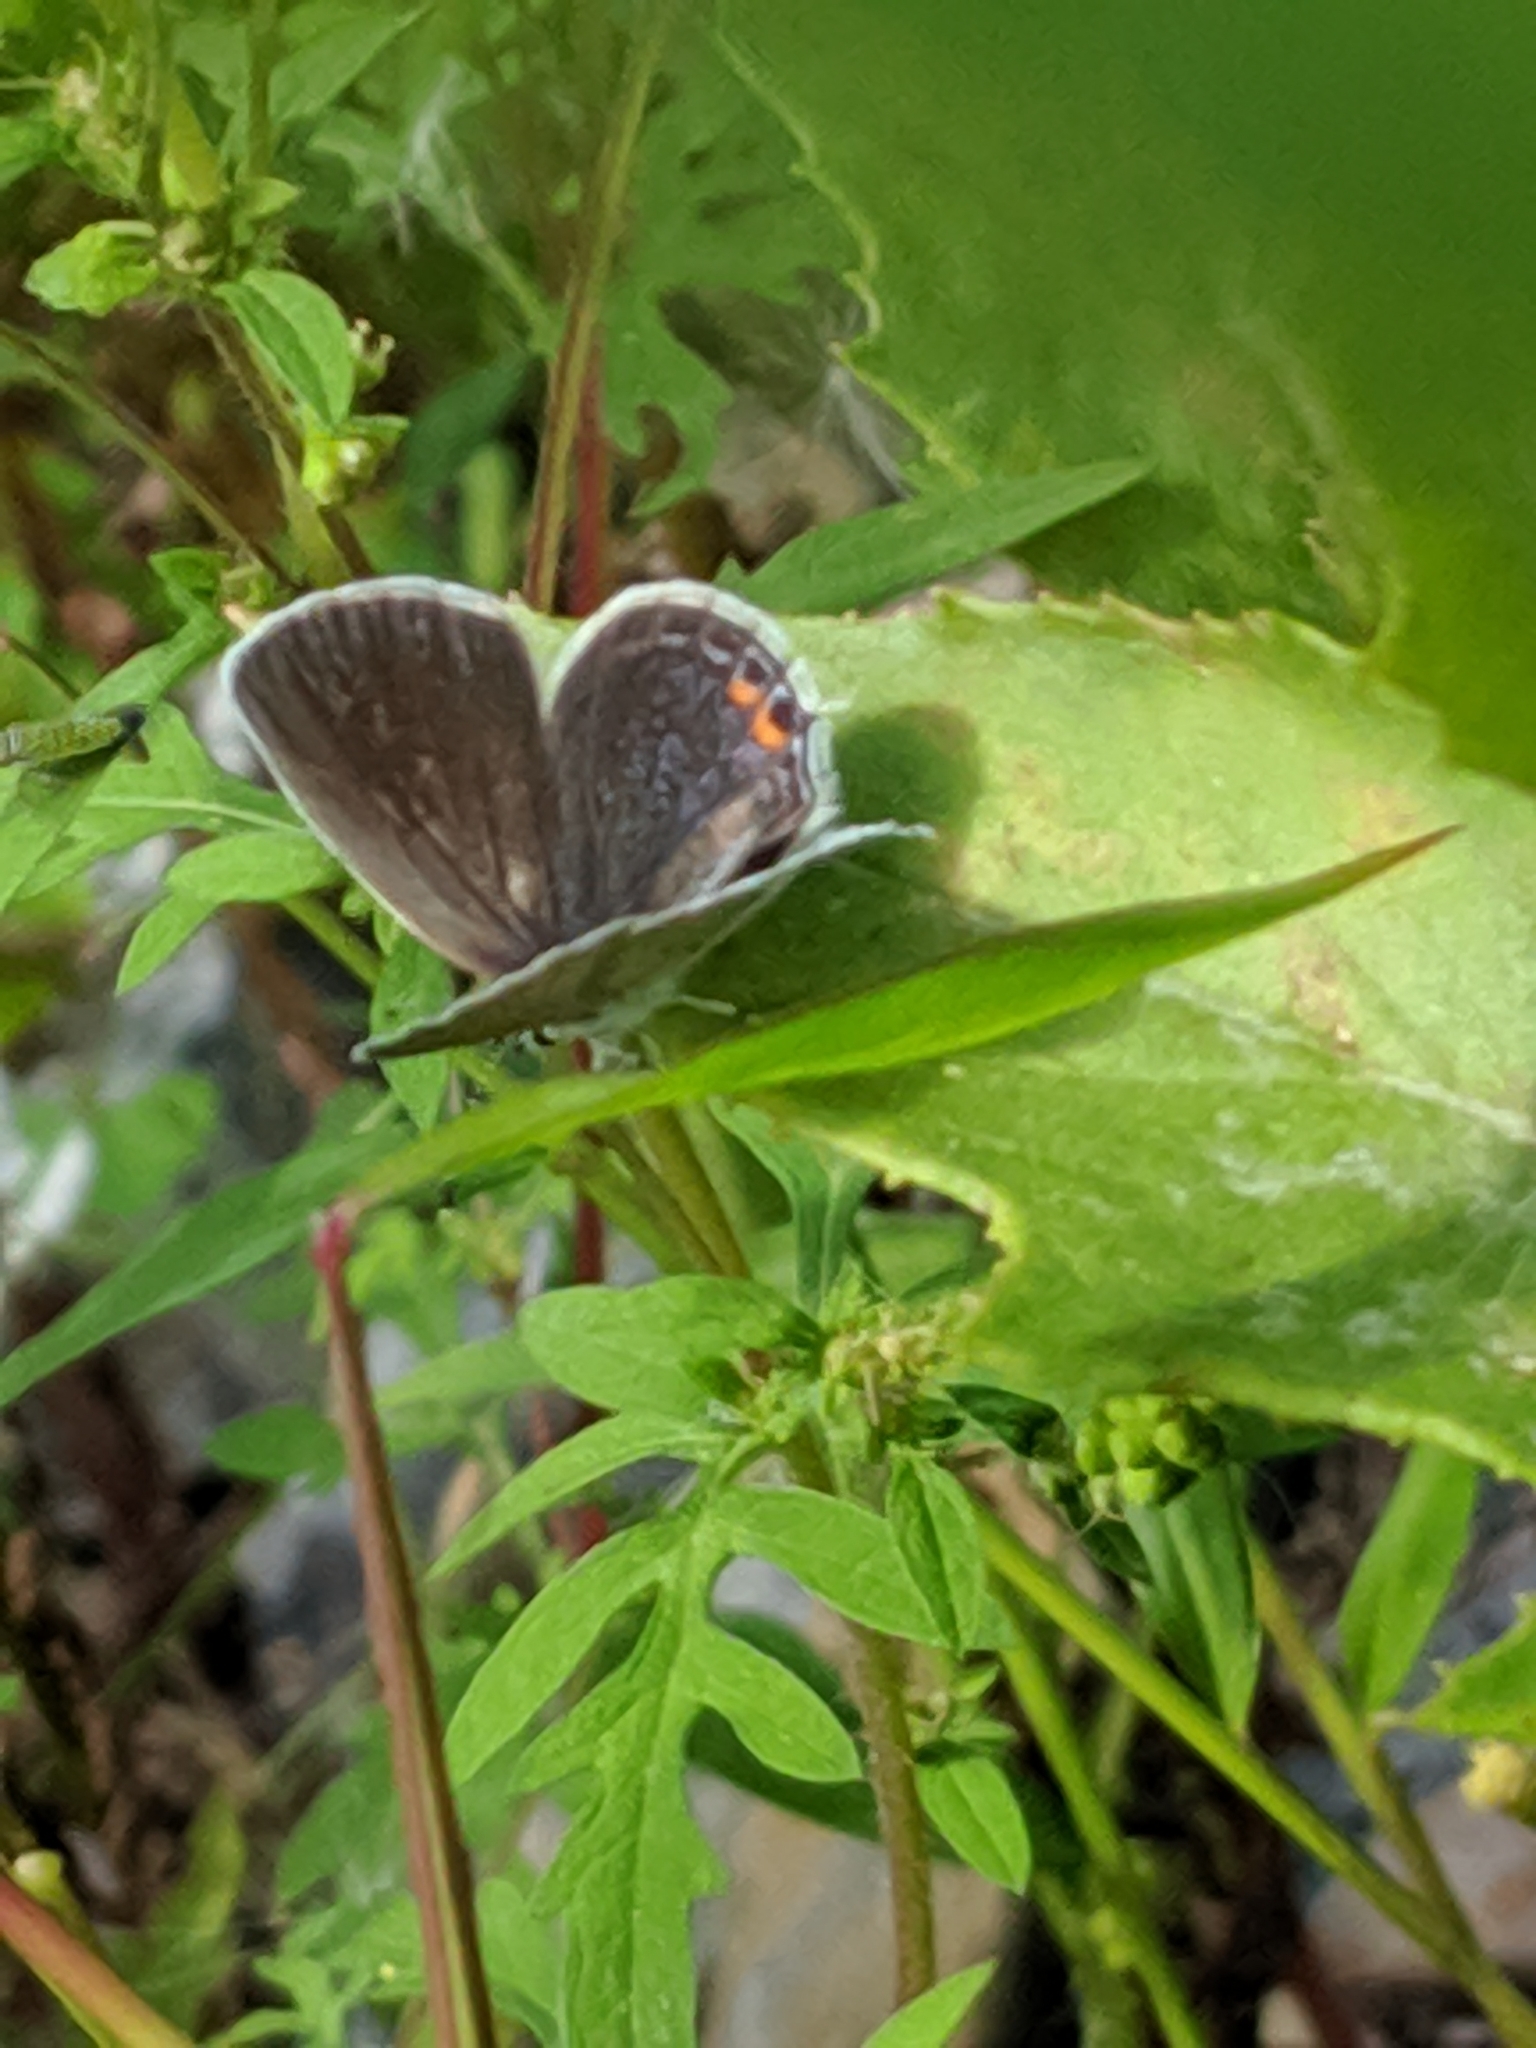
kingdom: Animalia
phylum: Arthropoda
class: Insecta
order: Lepidoptera
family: Lycaenidae
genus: Elkalyce
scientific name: Elkalyce comyntas
